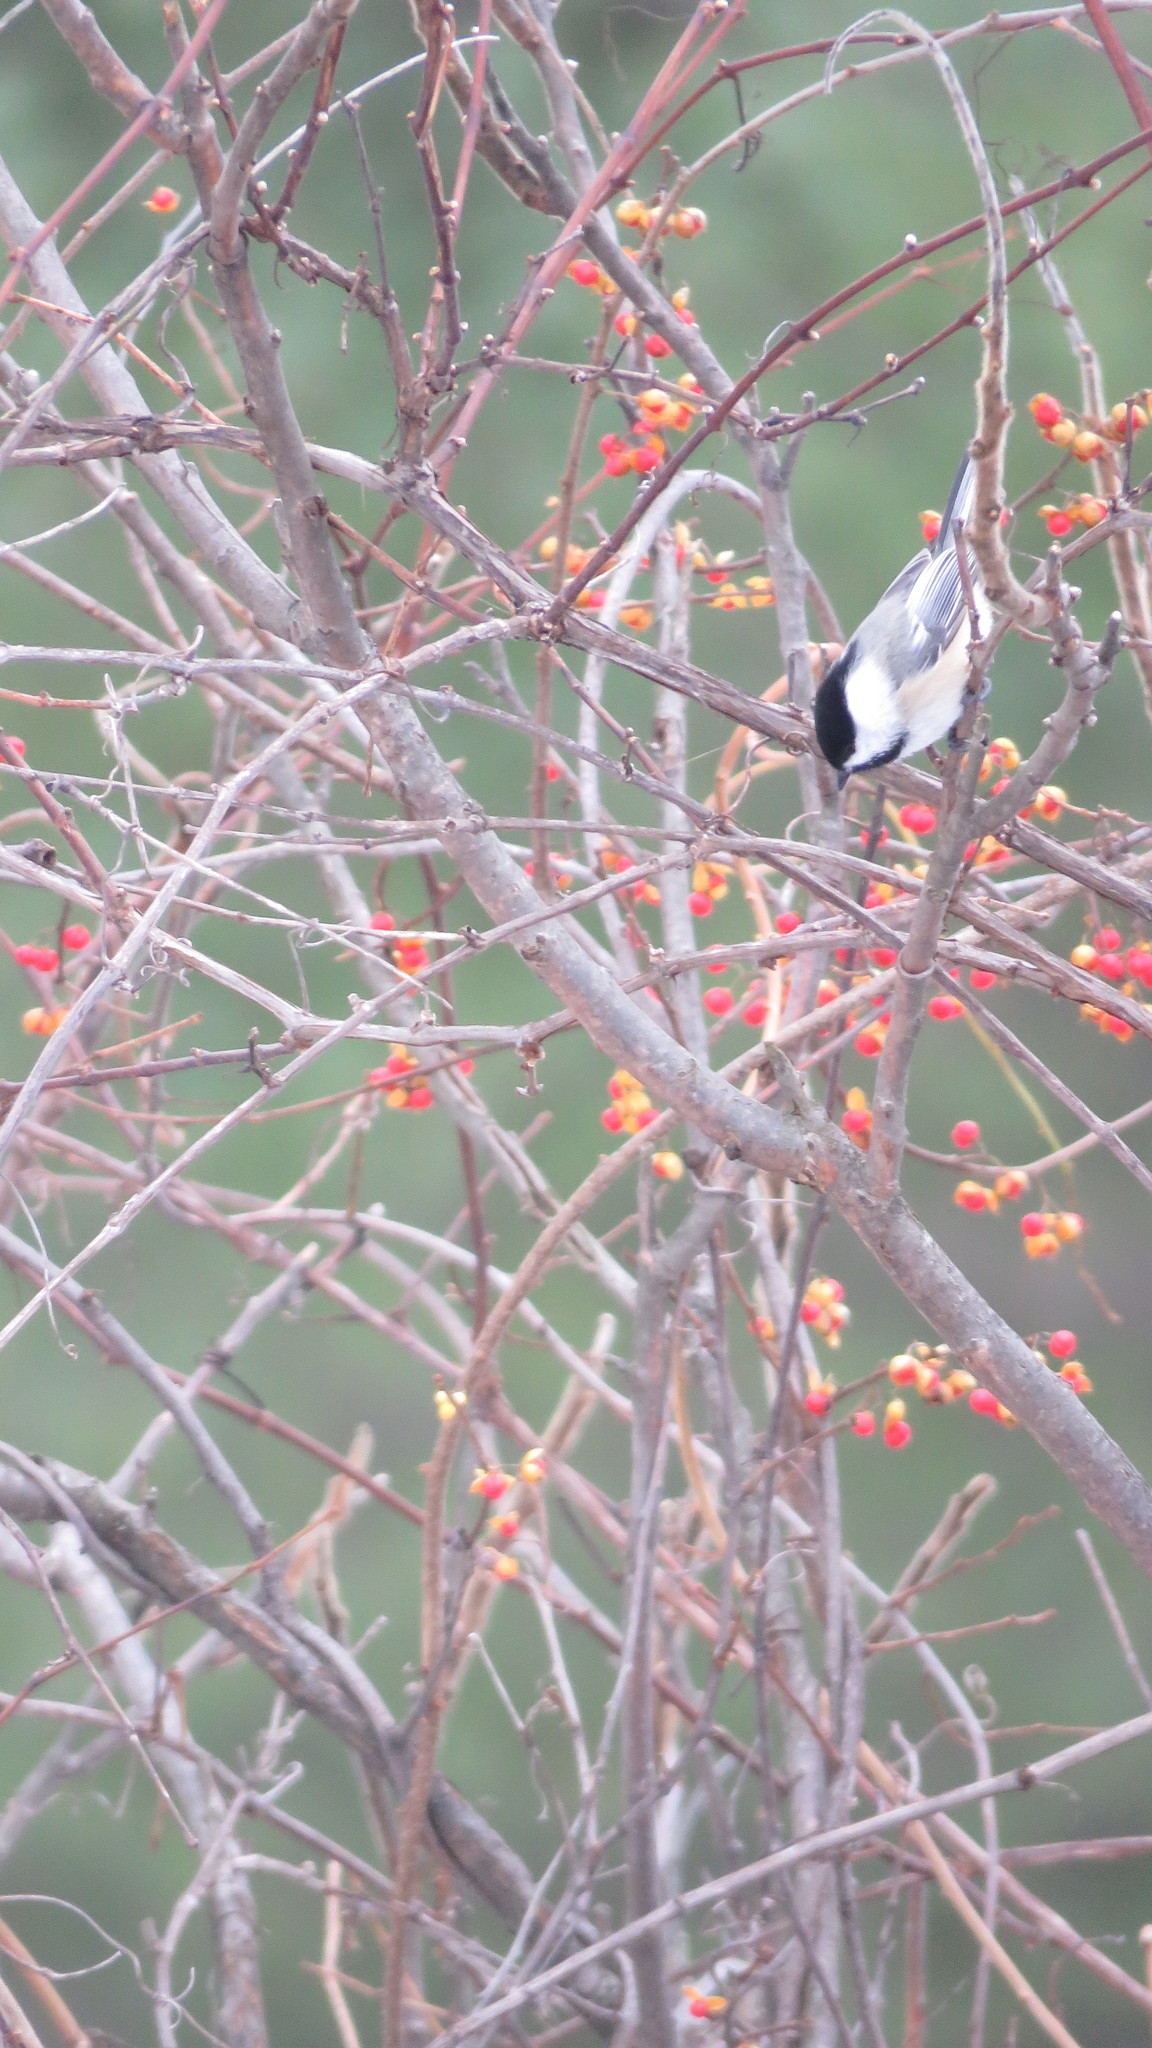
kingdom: Animalia
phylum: Chordata
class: Aves
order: Passeriformes
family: Paridae
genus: Poecile
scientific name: Poecile atricapillus
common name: Black-capped chickadee
